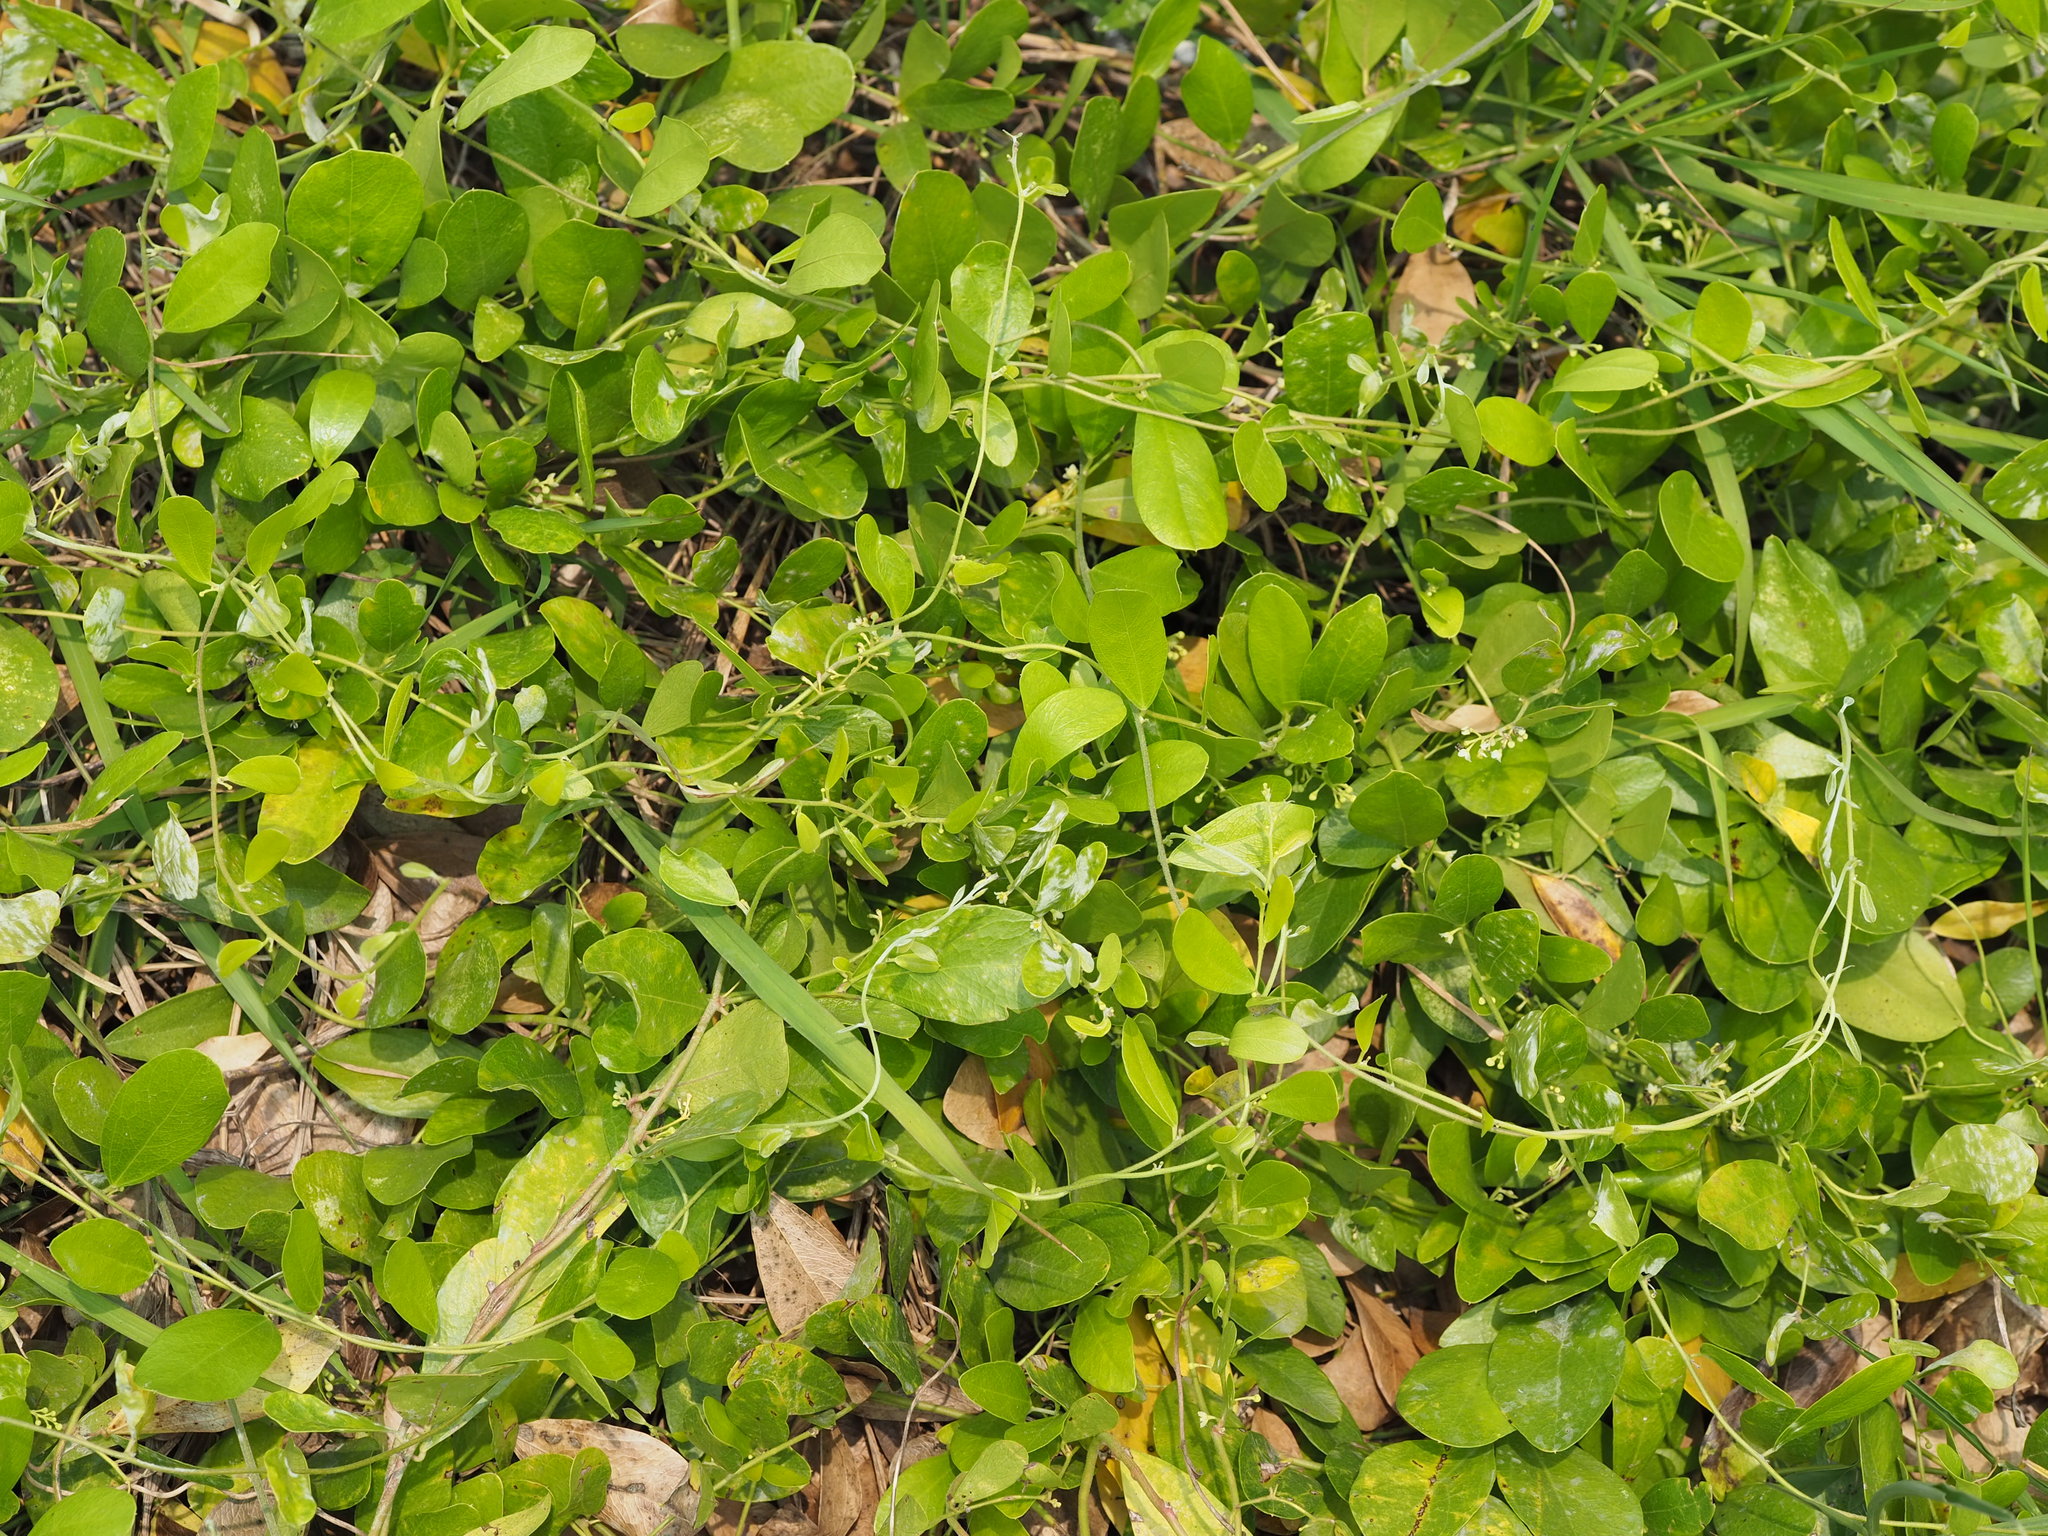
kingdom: Plantae
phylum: Tracheophyta
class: Magnoliopsida
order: Ranunculales
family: Menispermaceae
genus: Cocculus
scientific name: Cocculus orbiculatus
